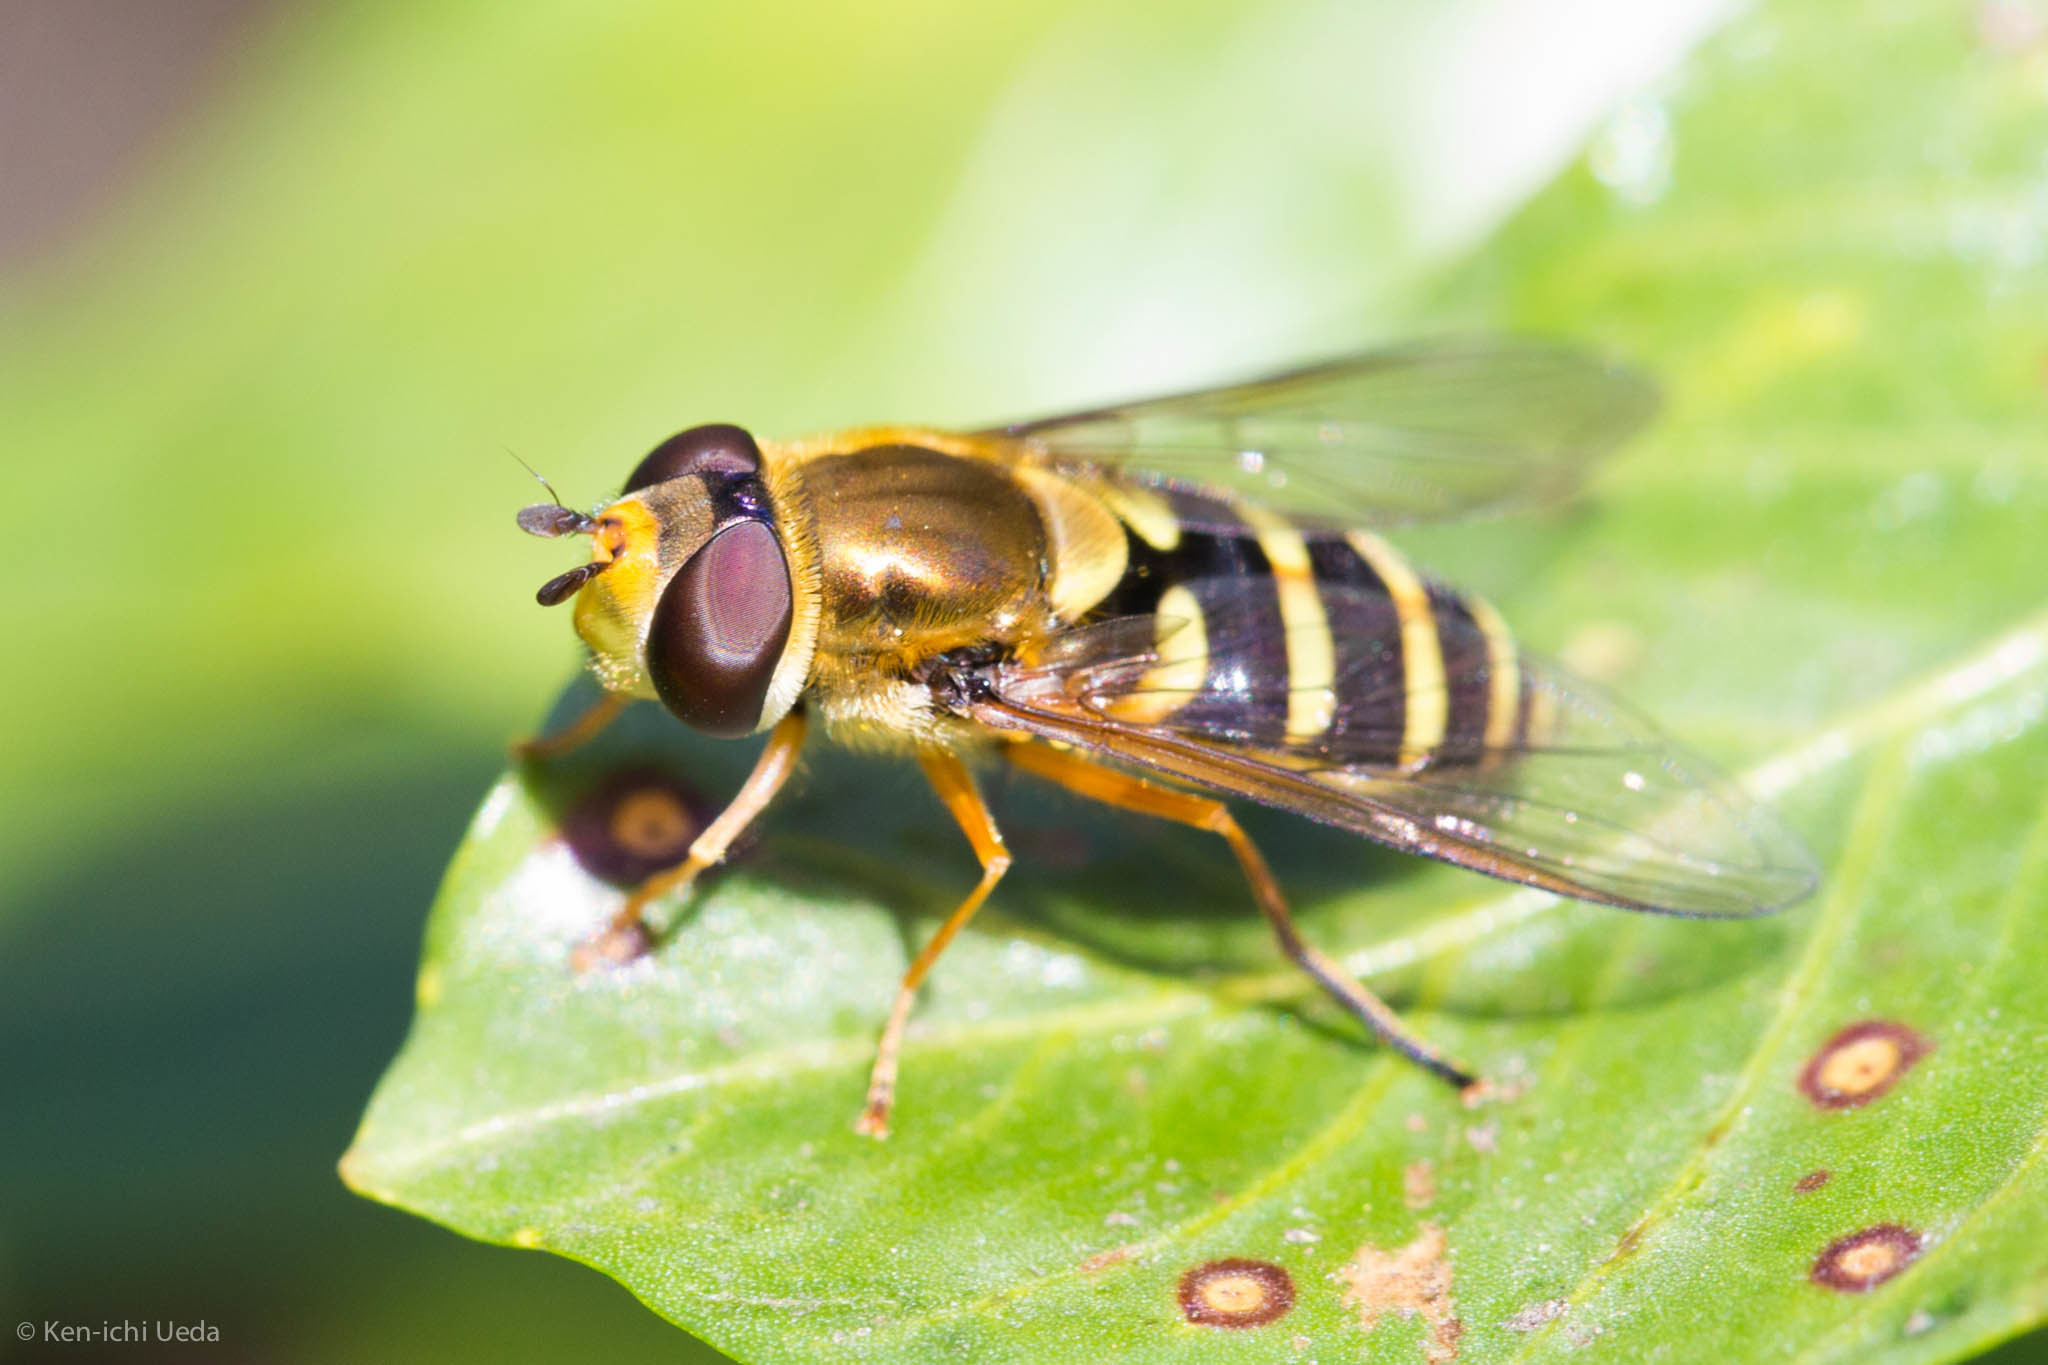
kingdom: Animalia
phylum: Arthropoda
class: Insecta
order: Diptera
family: Syrphidae
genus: Syrphus
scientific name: Syrphus opinator
